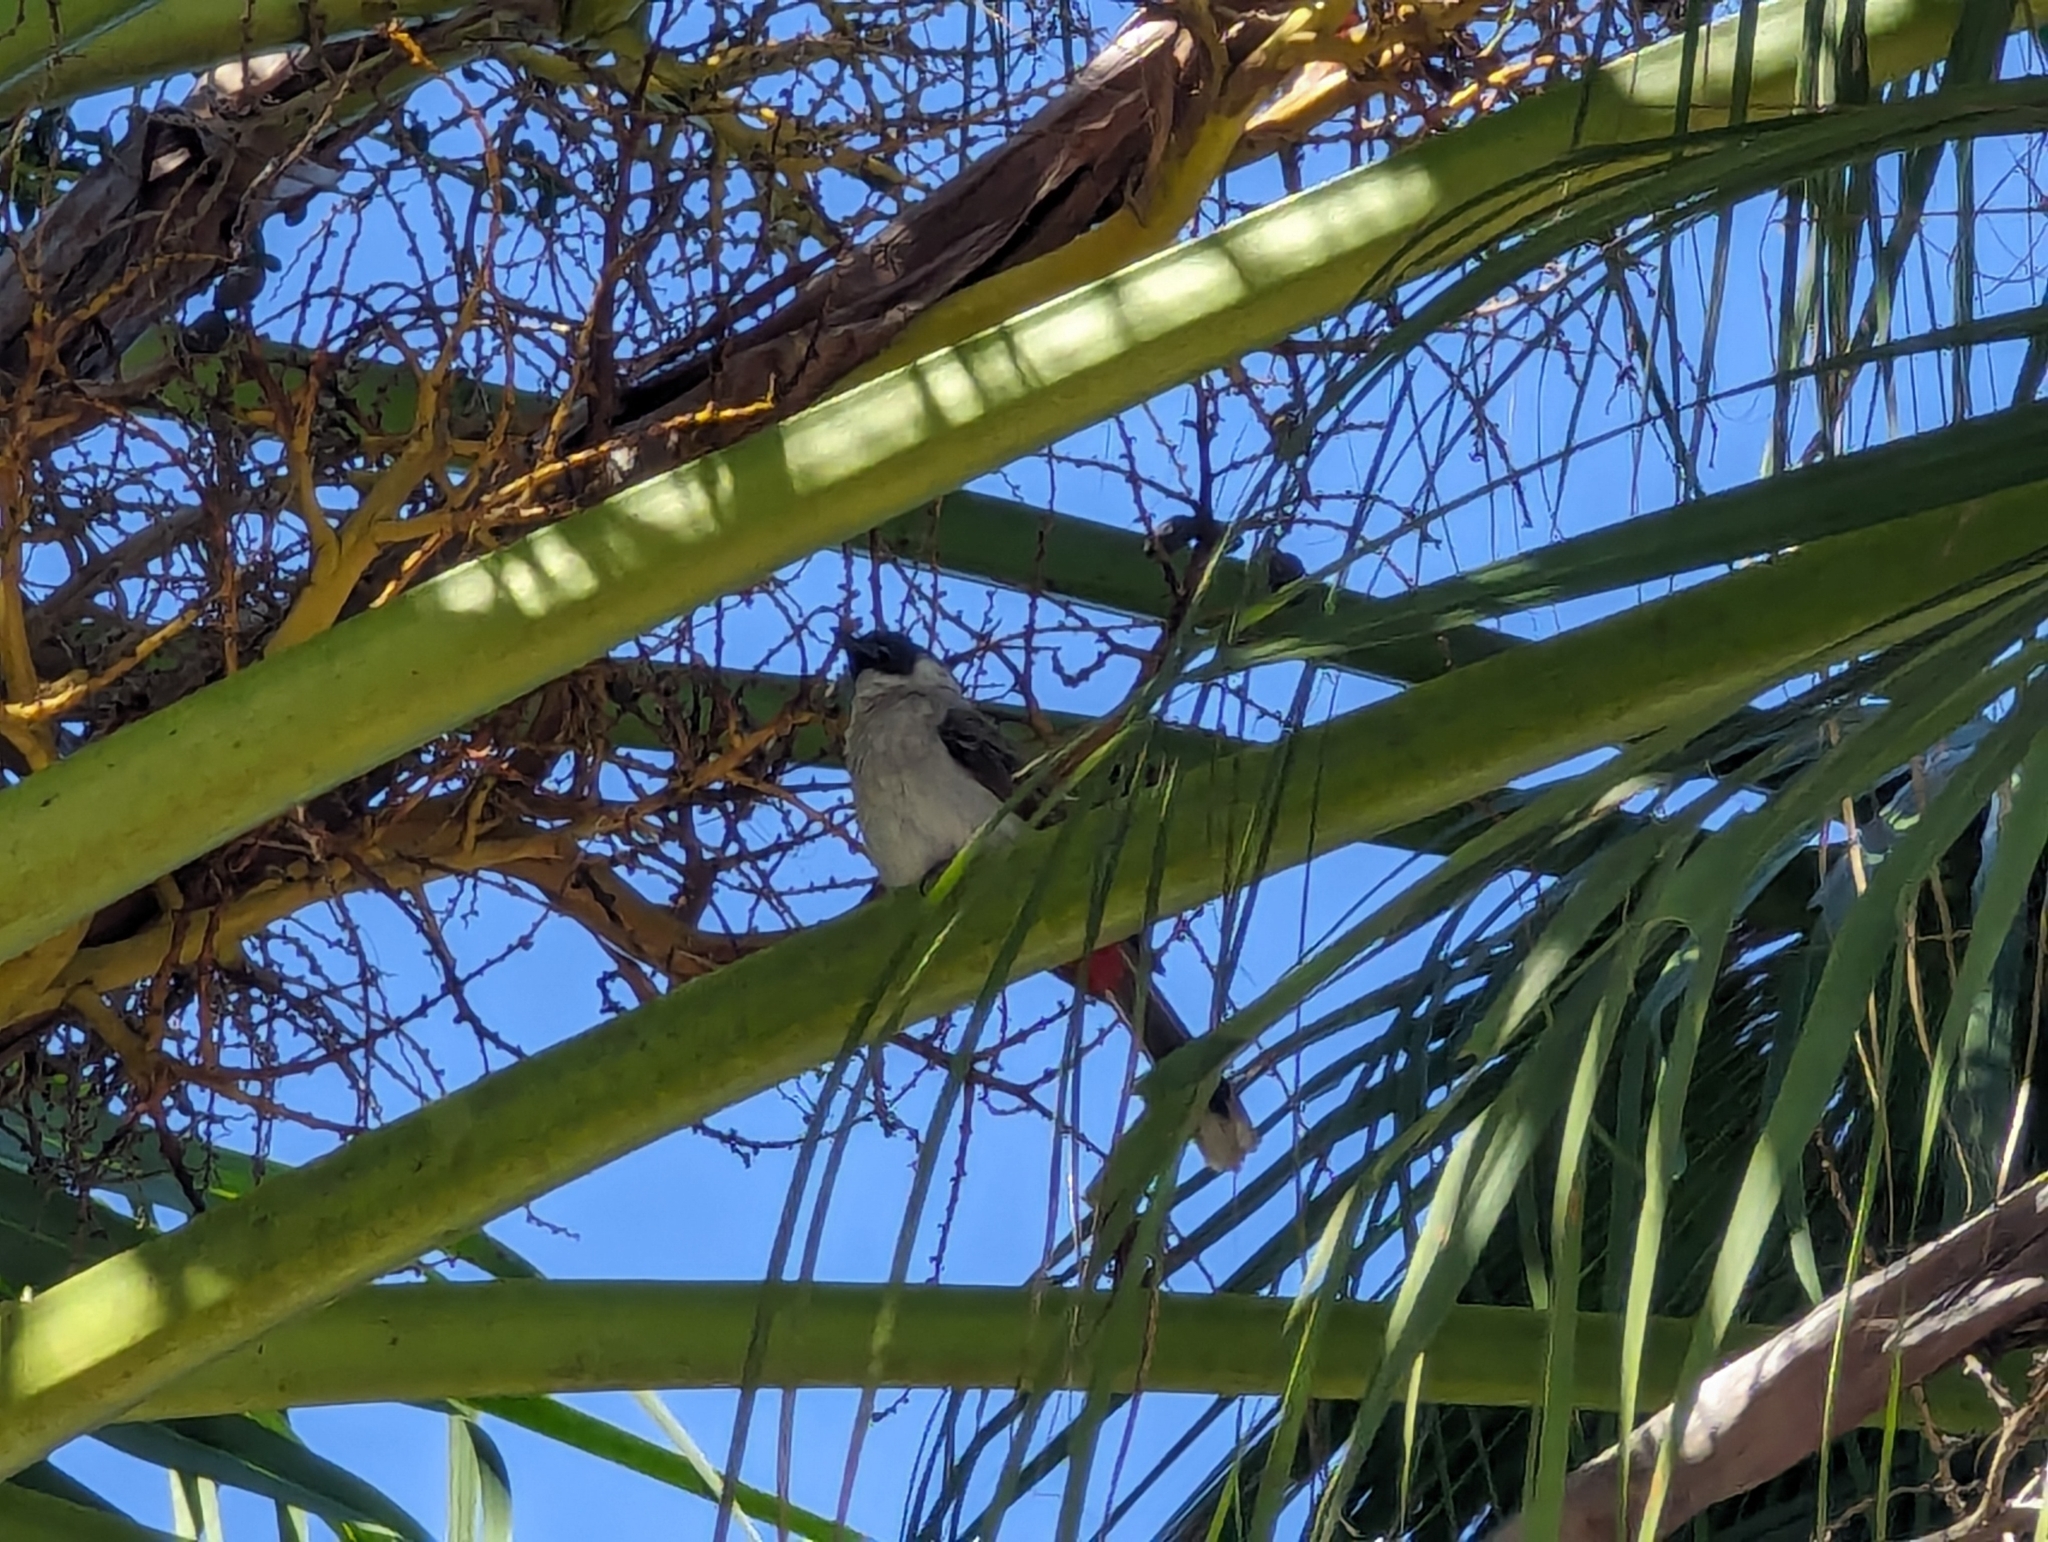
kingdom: Animalia
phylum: Chordata
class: Aves
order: Passeriformes
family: Pycnonotidae
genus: Pycnonotus
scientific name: Pycnonotus aurigaster
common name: Sooty-headed bulbul
